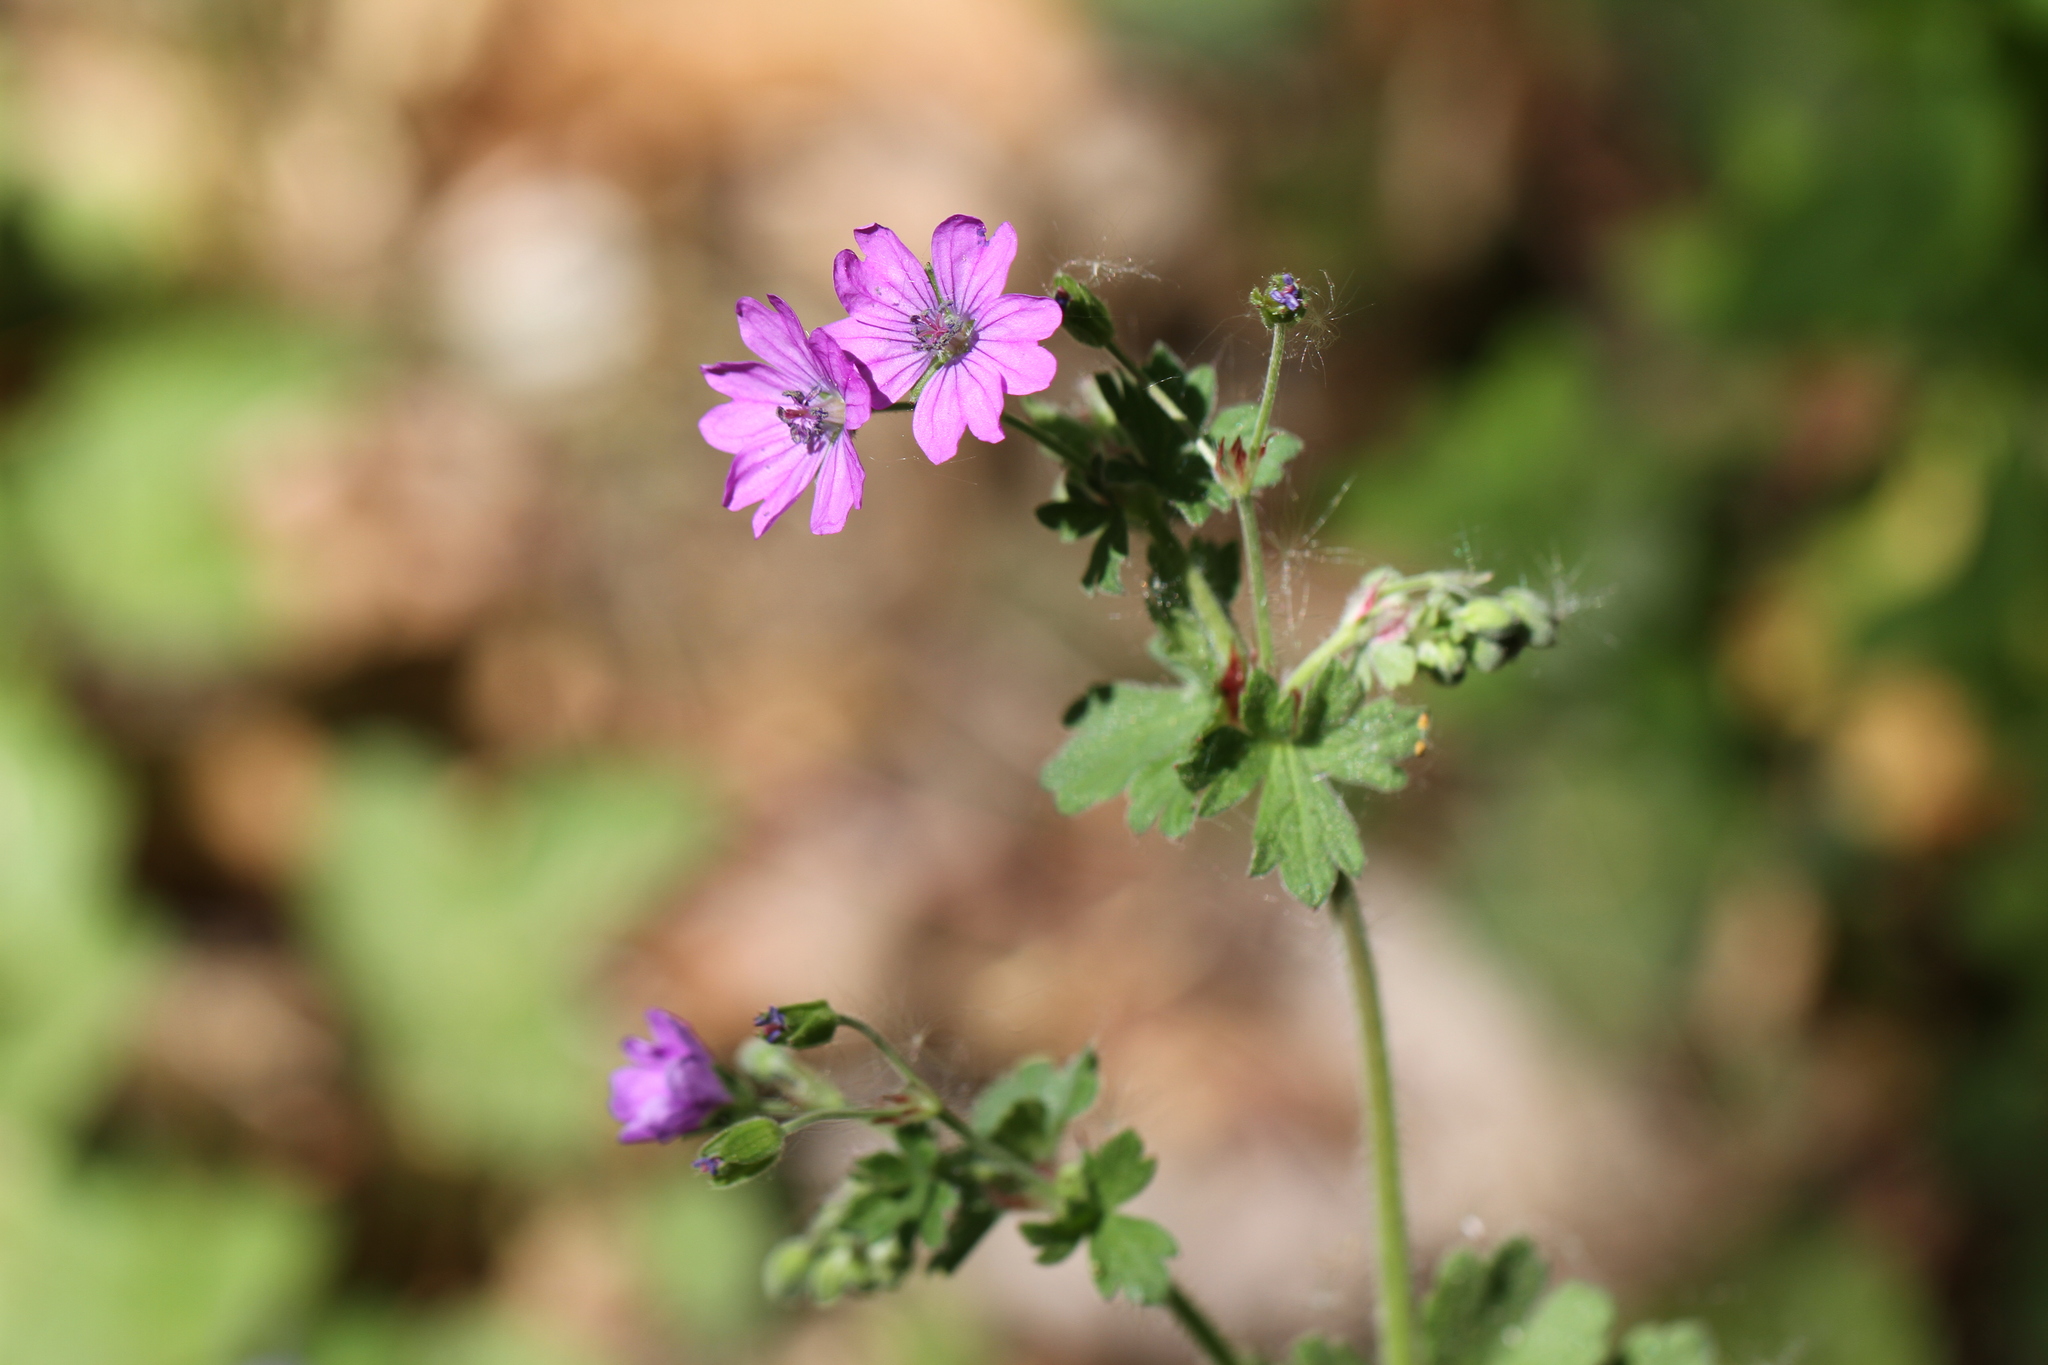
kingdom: Plantae
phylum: Tracheophyta
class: Magnoliopsida
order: Geraniales
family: Geraniaceae
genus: Geranium
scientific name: Geranium molle
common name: Dove's-foot crane's-bill
